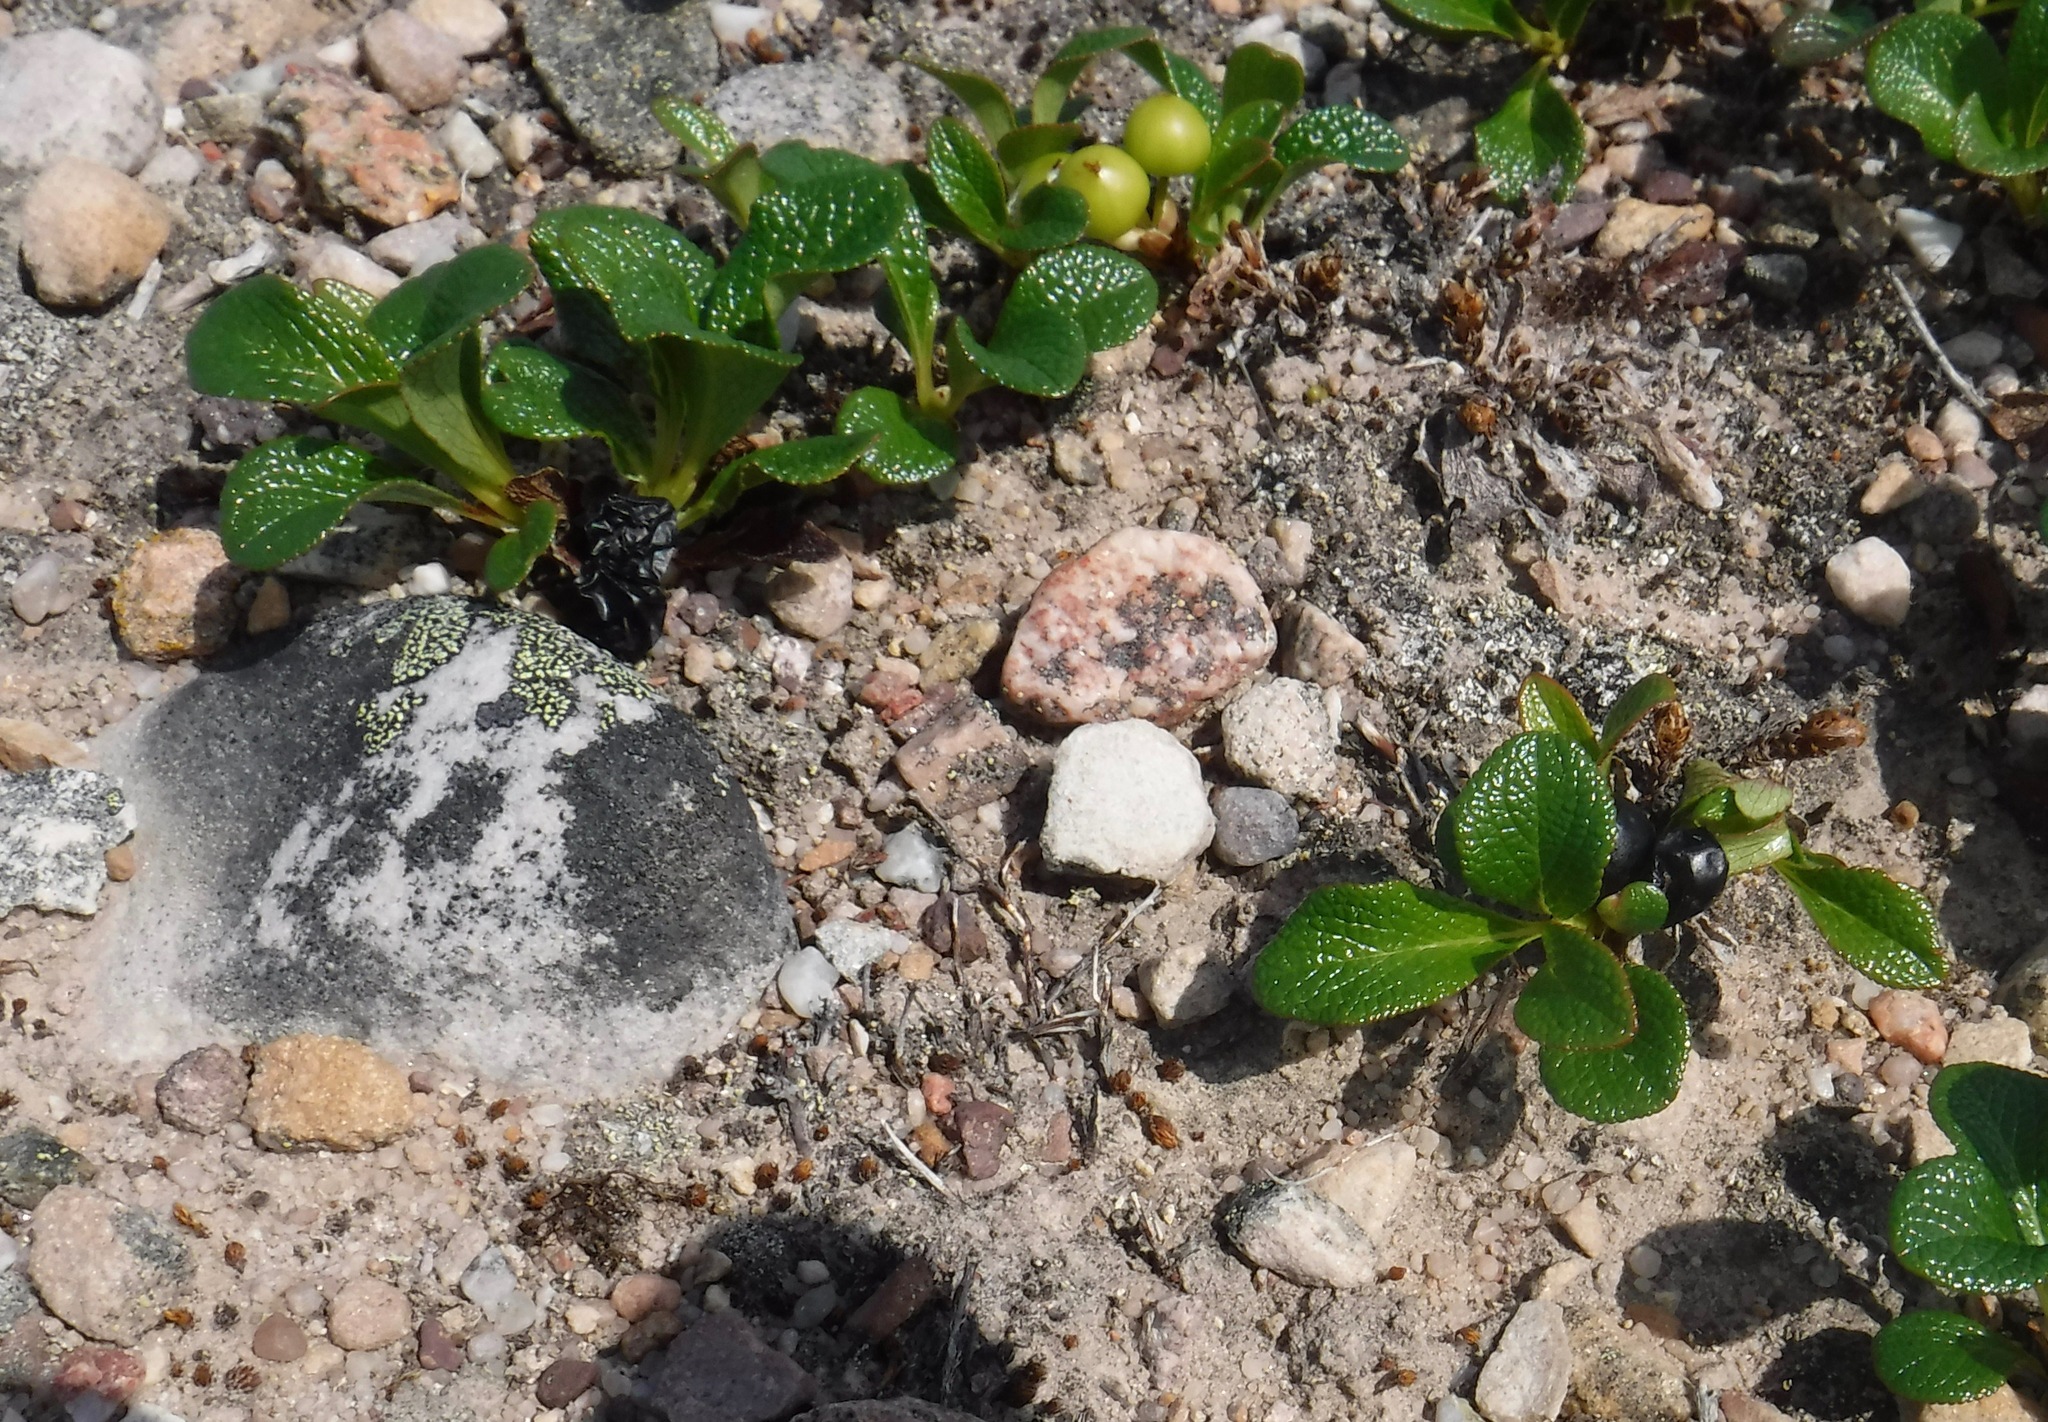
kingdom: Plantae
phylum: Tracheophyta
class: Magnoliopsida
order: Ericales
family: Ericaceae
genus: Arctostaphylos
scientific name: Arctostaphylos alpinus
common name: Alpine bearberry
